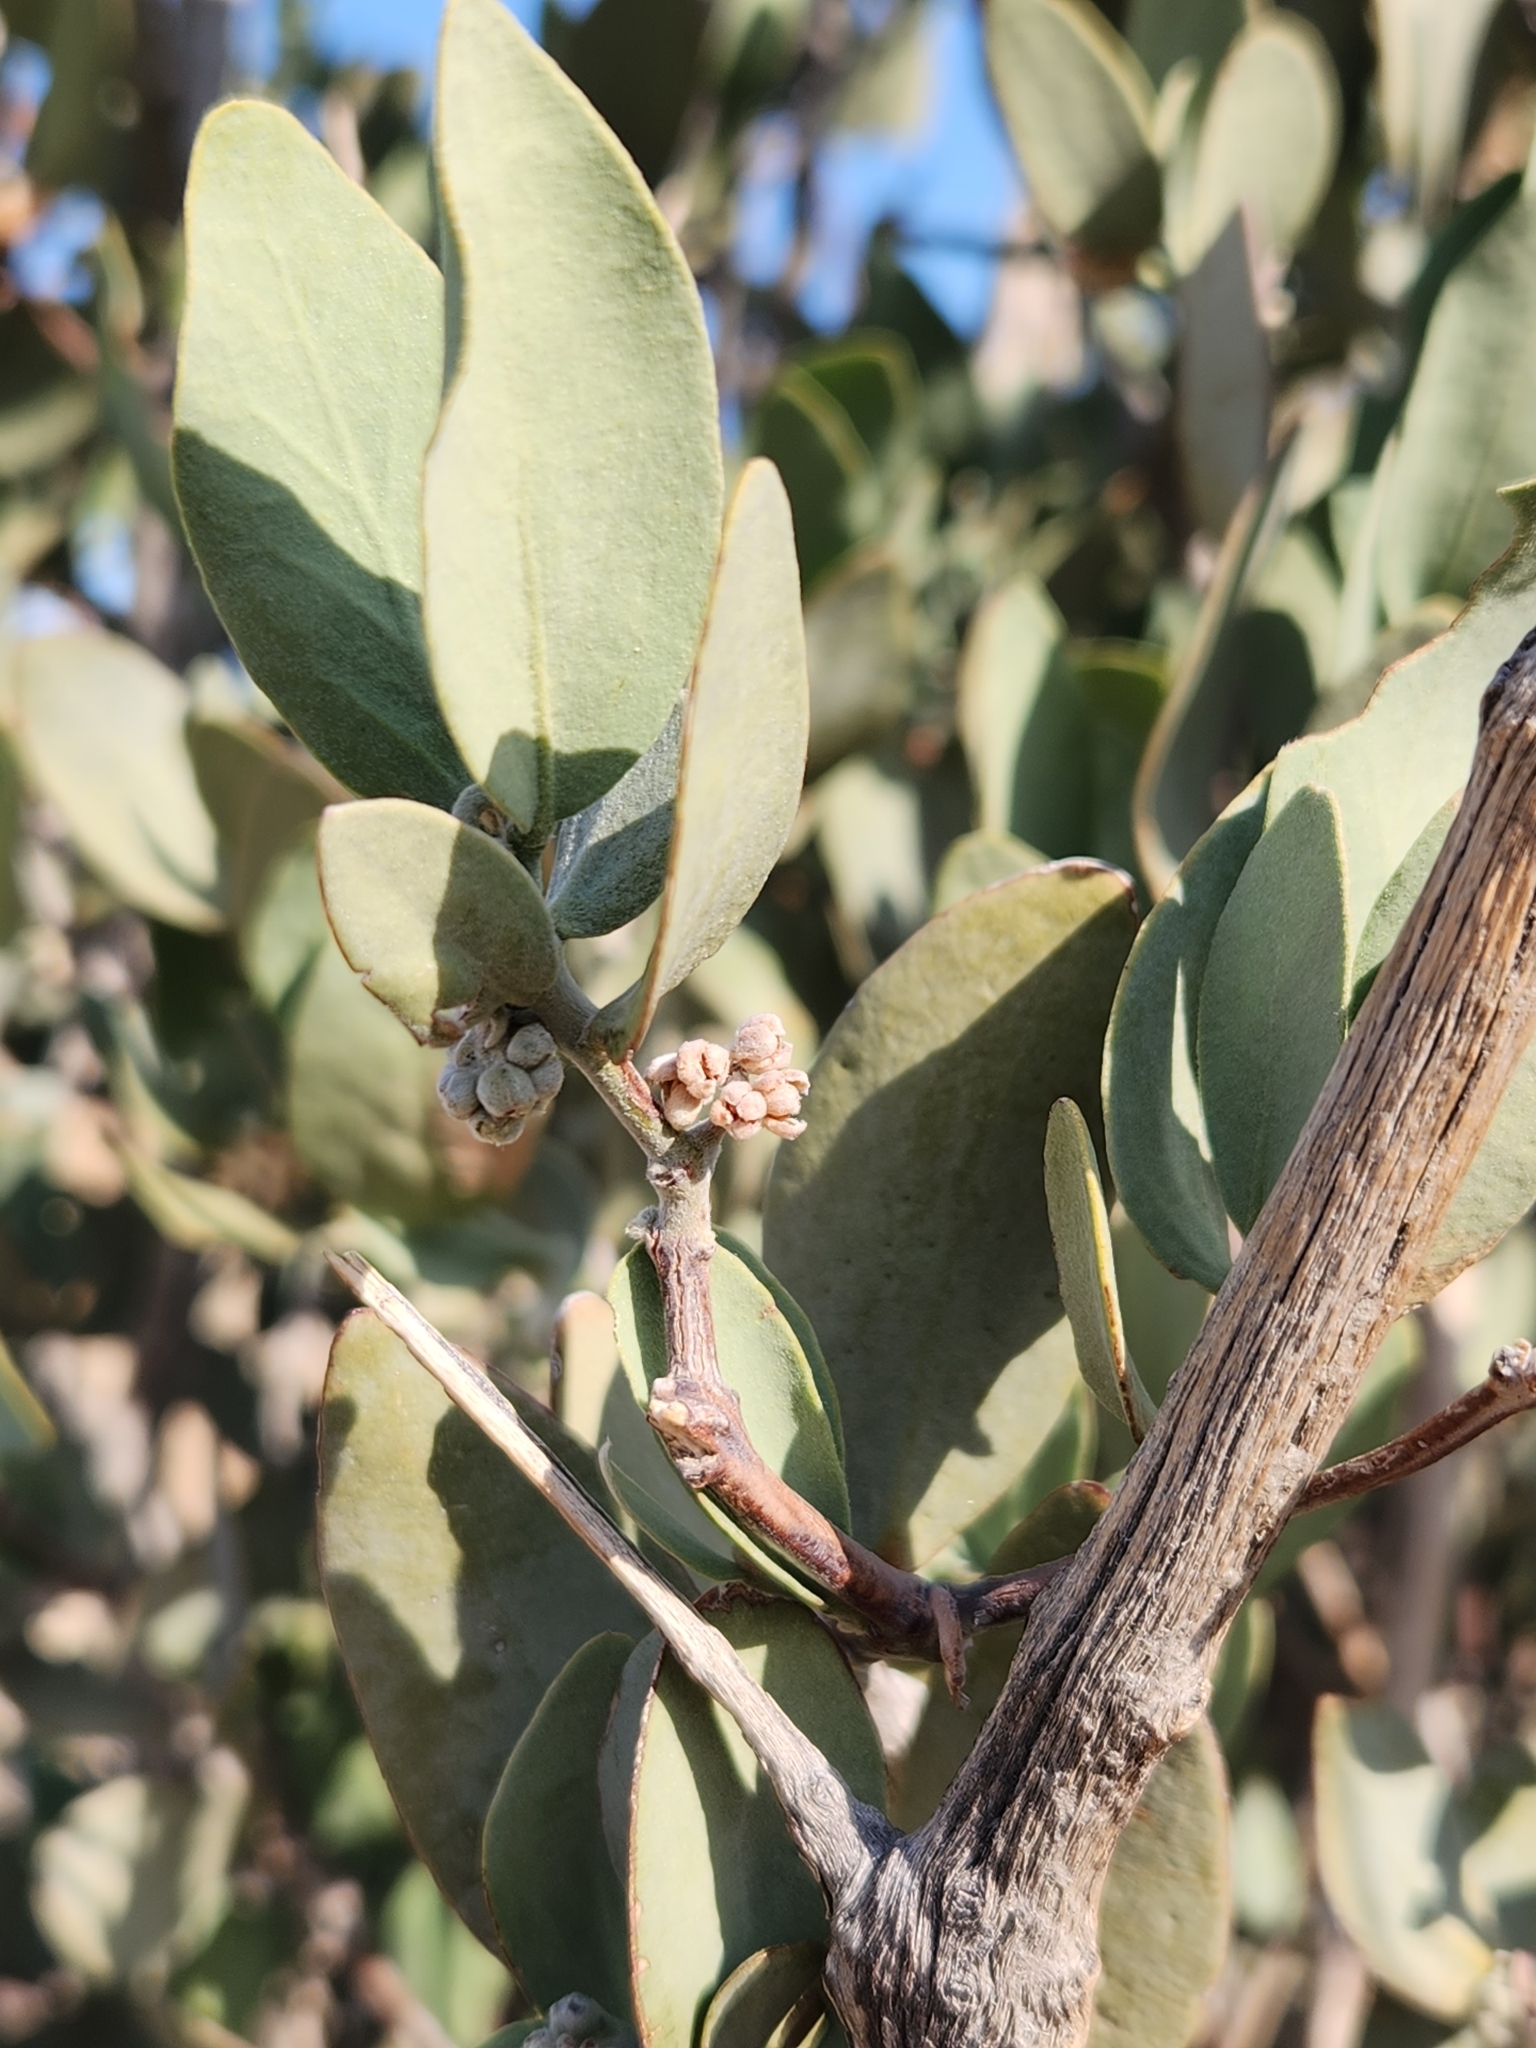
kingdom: Plantae
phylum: Tracheophyta
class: Magnoliopsida
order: Caryophyllales
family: Simmondsiaceae
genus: Simmondsia
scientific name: Simmondsia chinensis
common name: Jojoba
